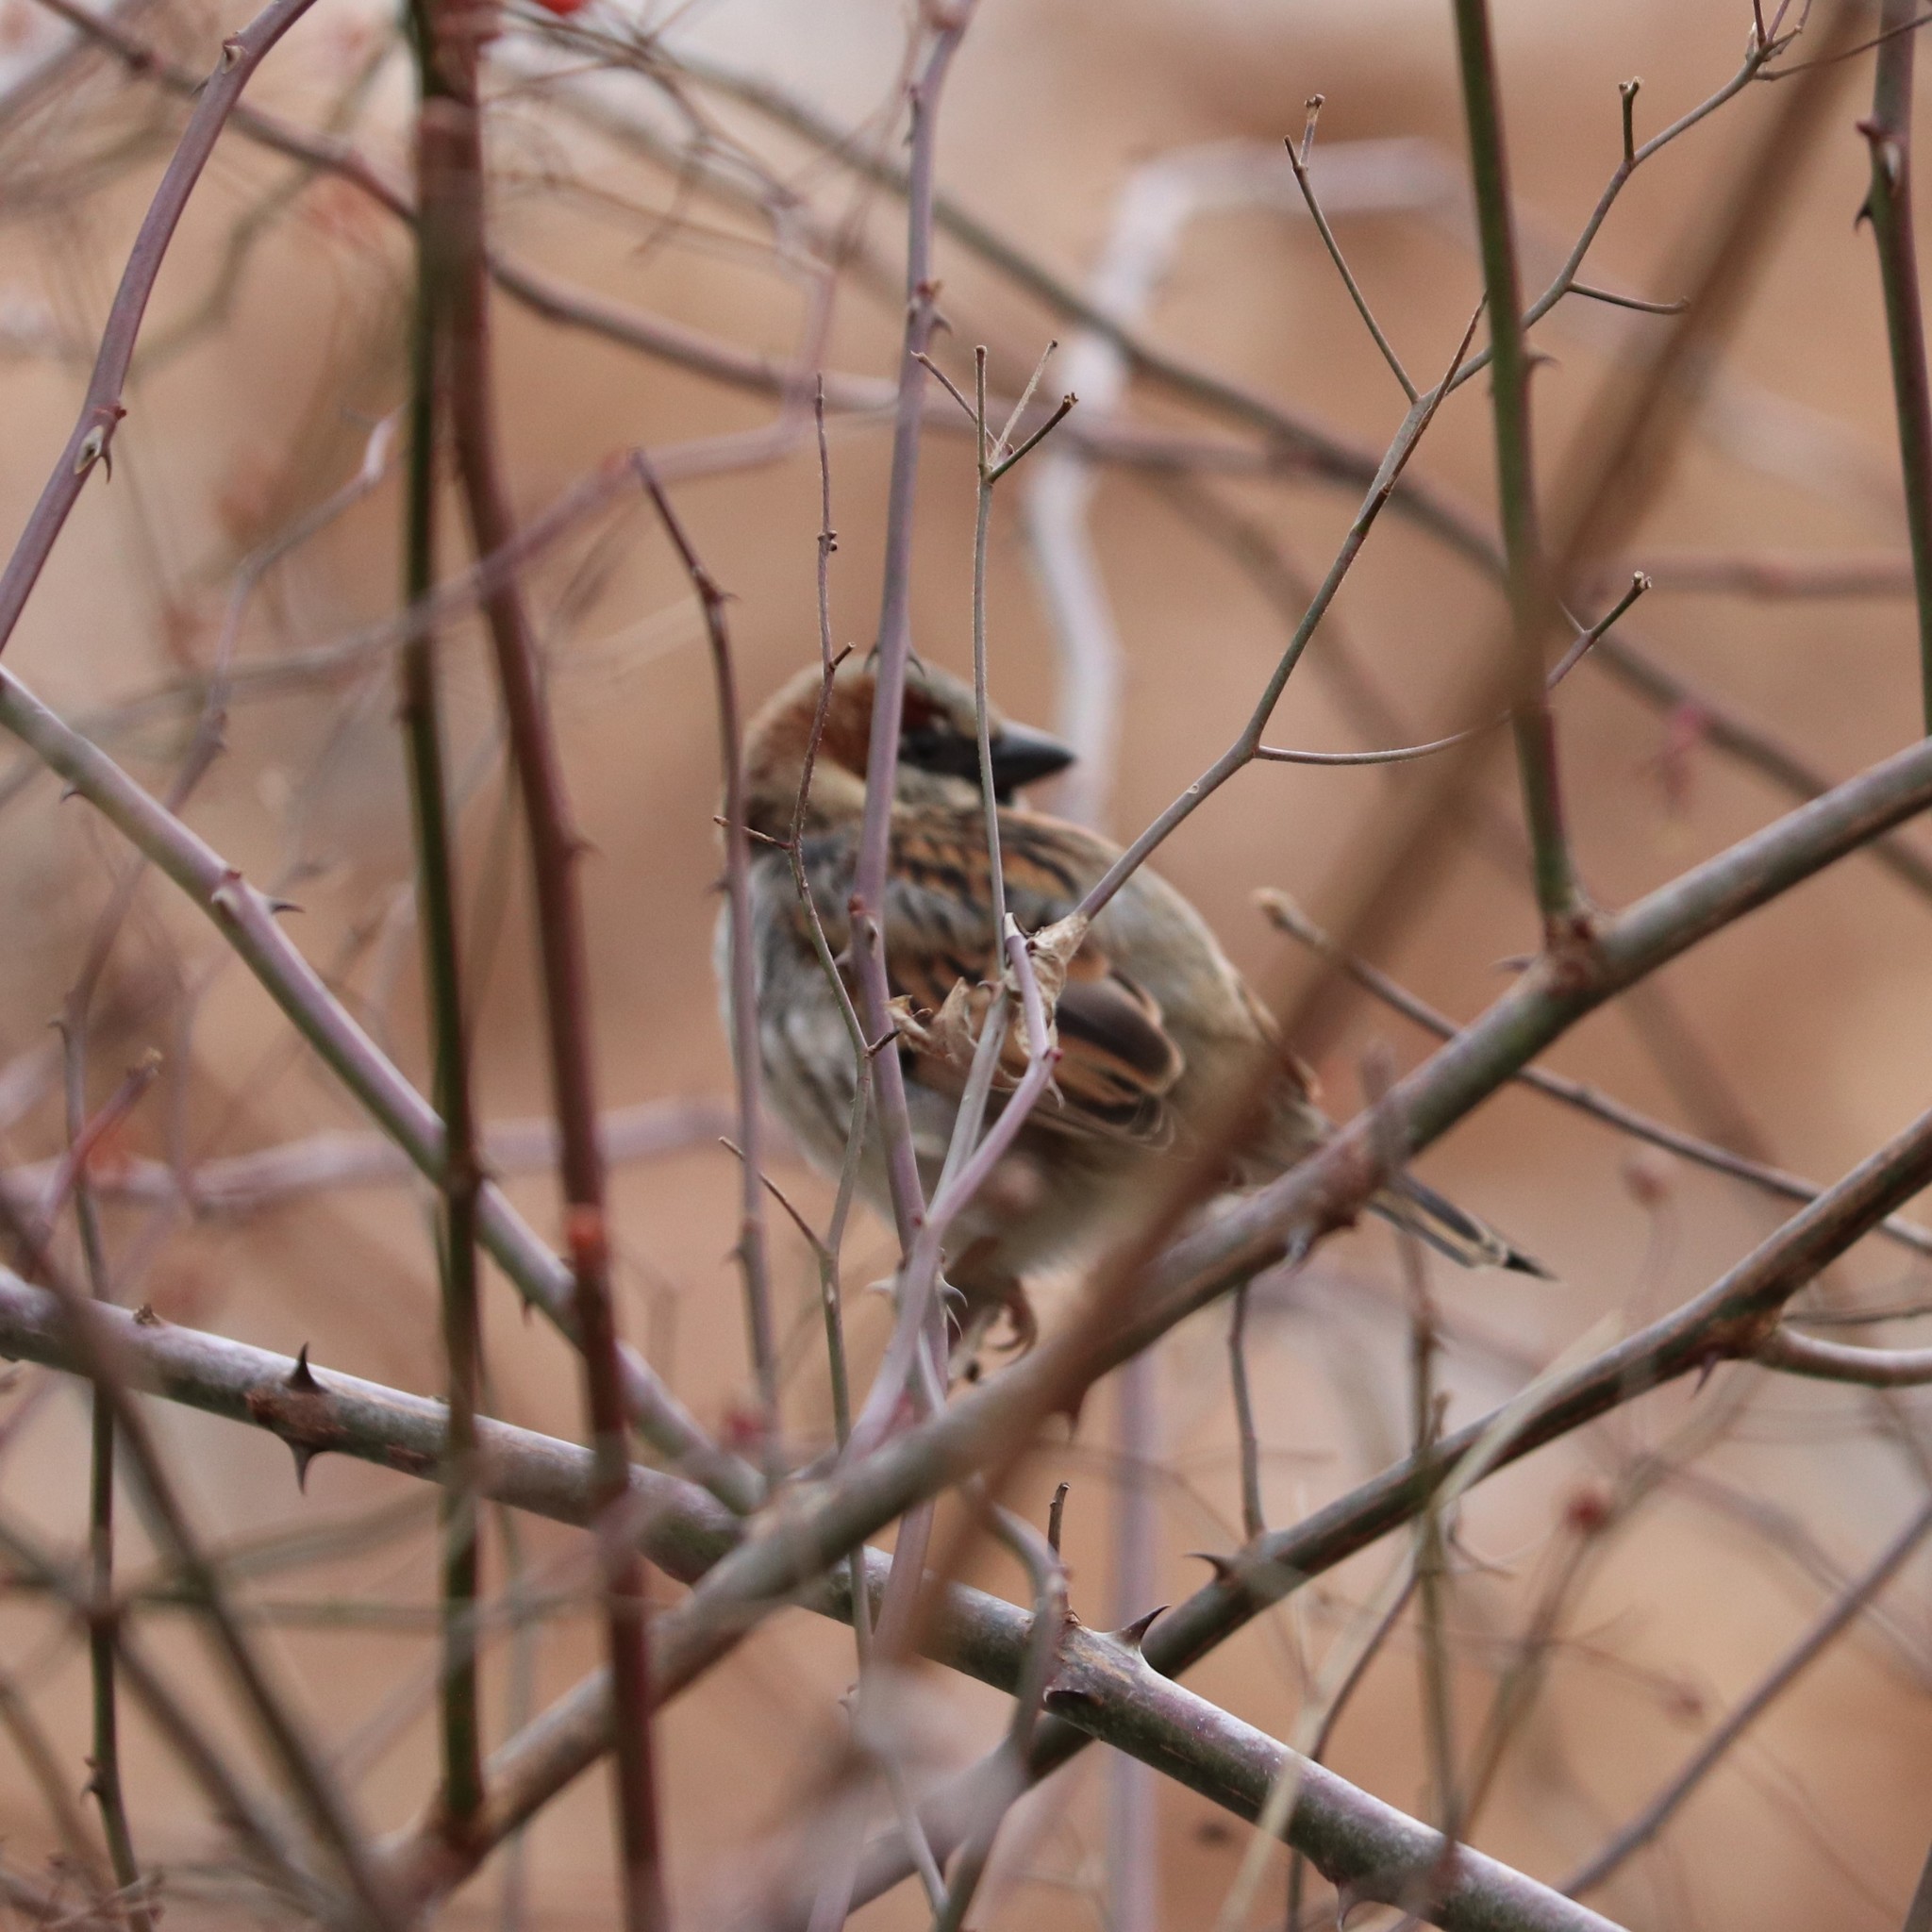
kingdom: Animalia
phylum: Chordata
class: Aves
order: Passeriformes
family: Passeridae
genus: Passer
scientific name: Passer domesticus
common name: House sparrow
